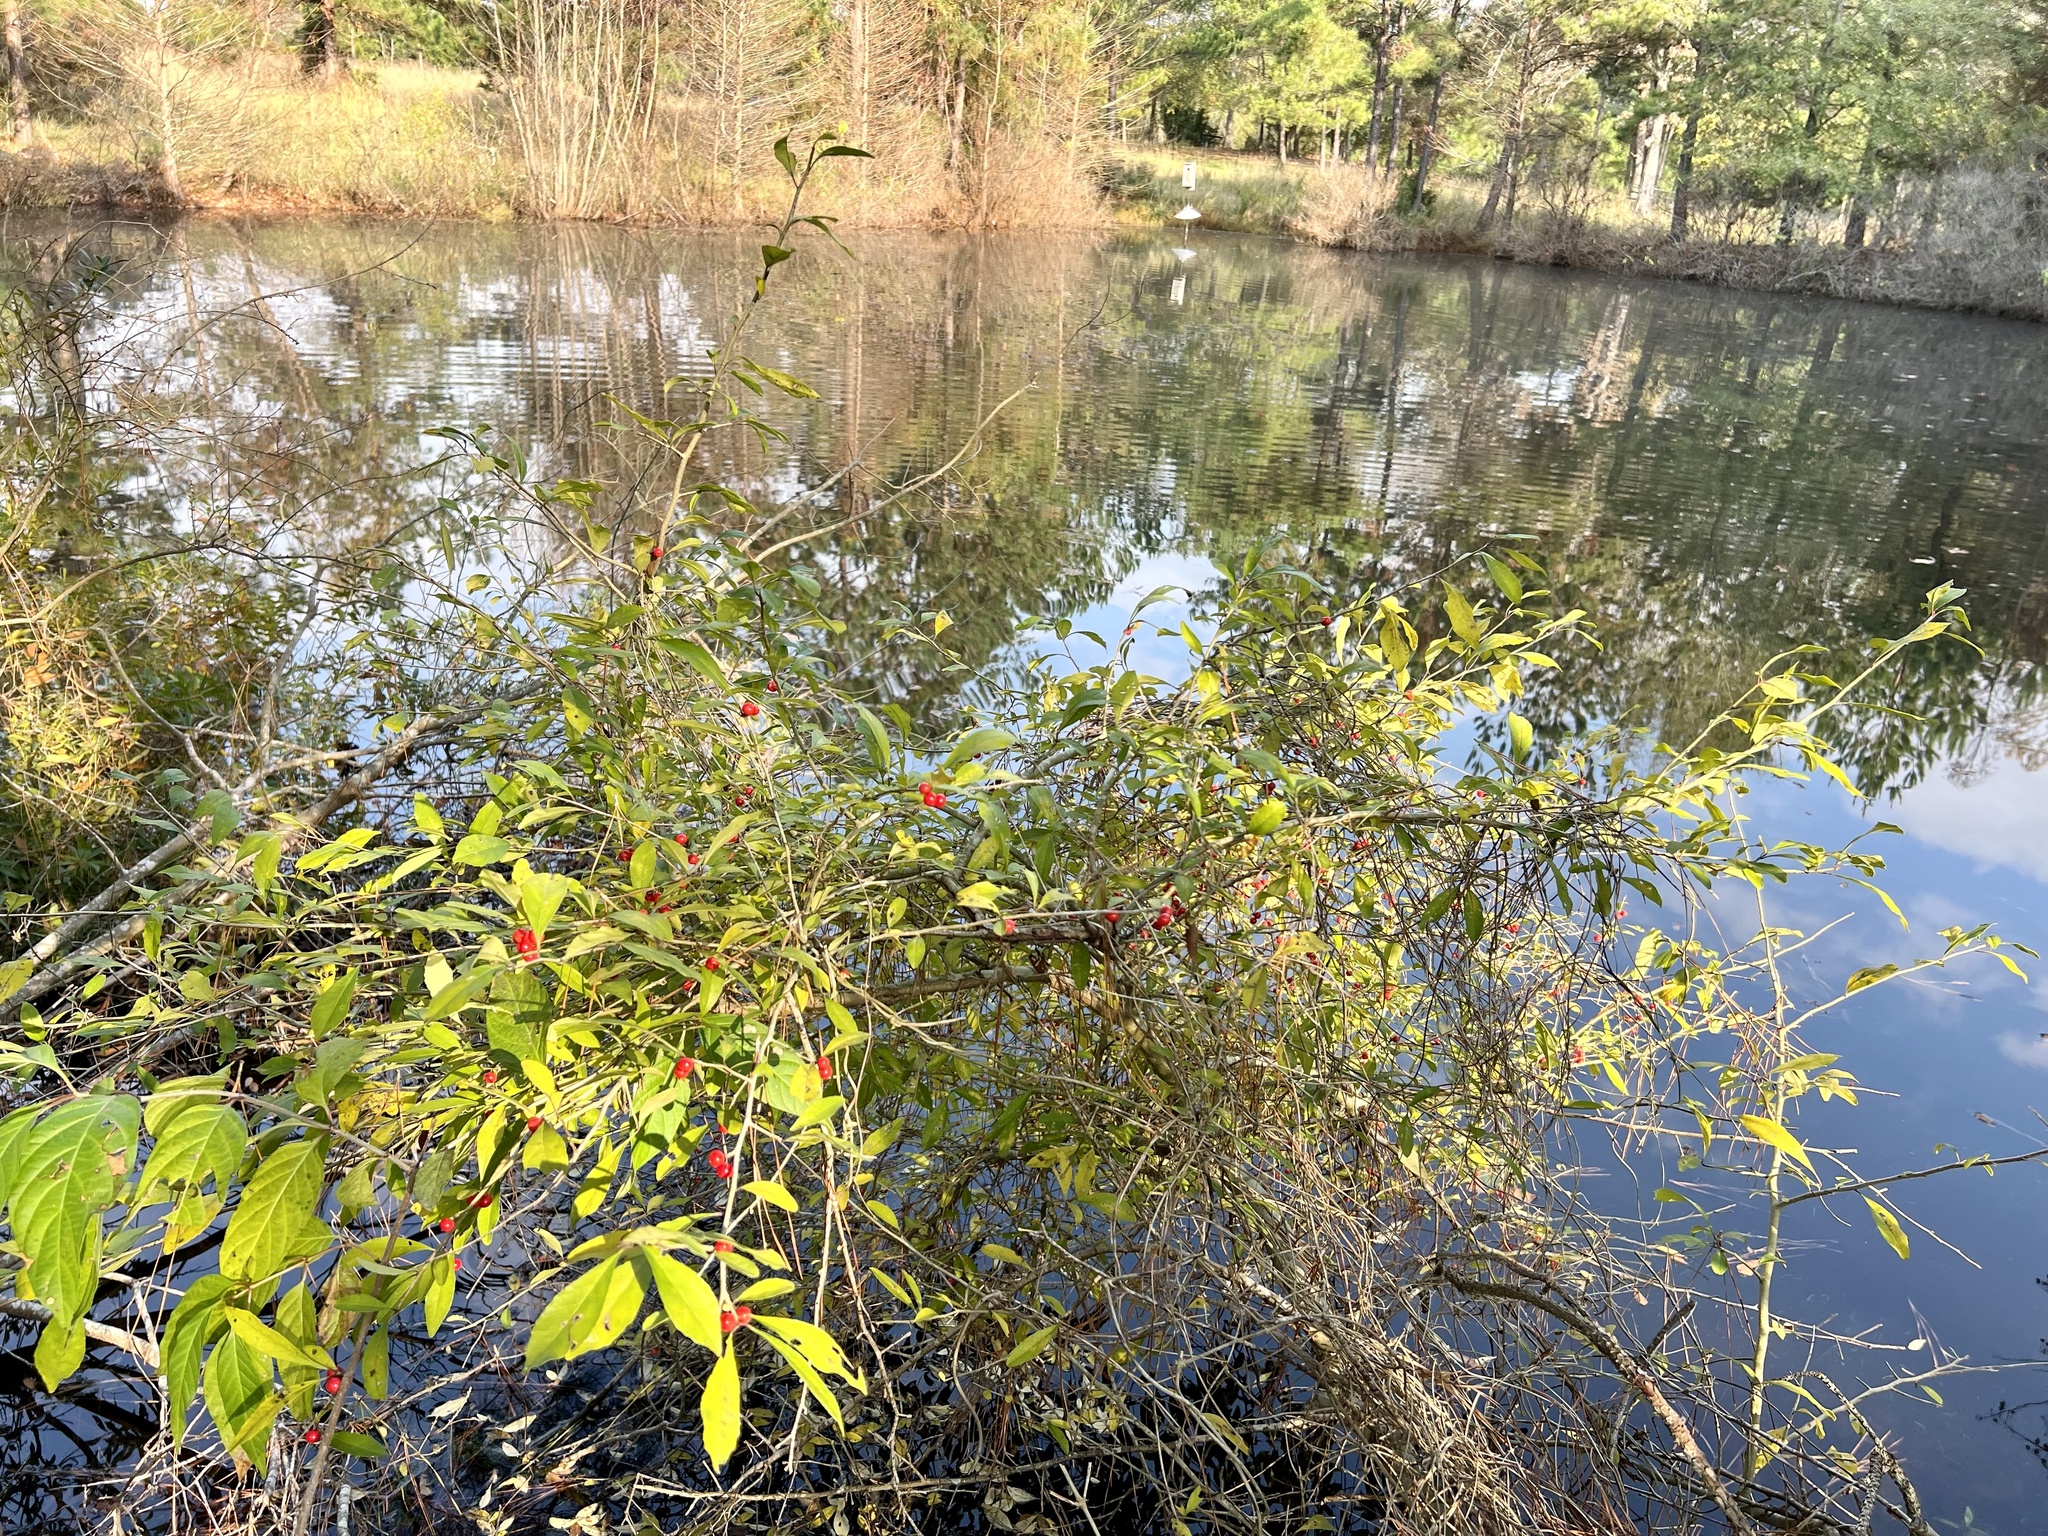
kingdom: Plantae
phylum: Tracheophyta
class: Magnoliopsida
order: Aquifoliales
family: Aquifoliaceae
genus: Ilex
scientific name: Ilex decidua
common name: Possum-haw
